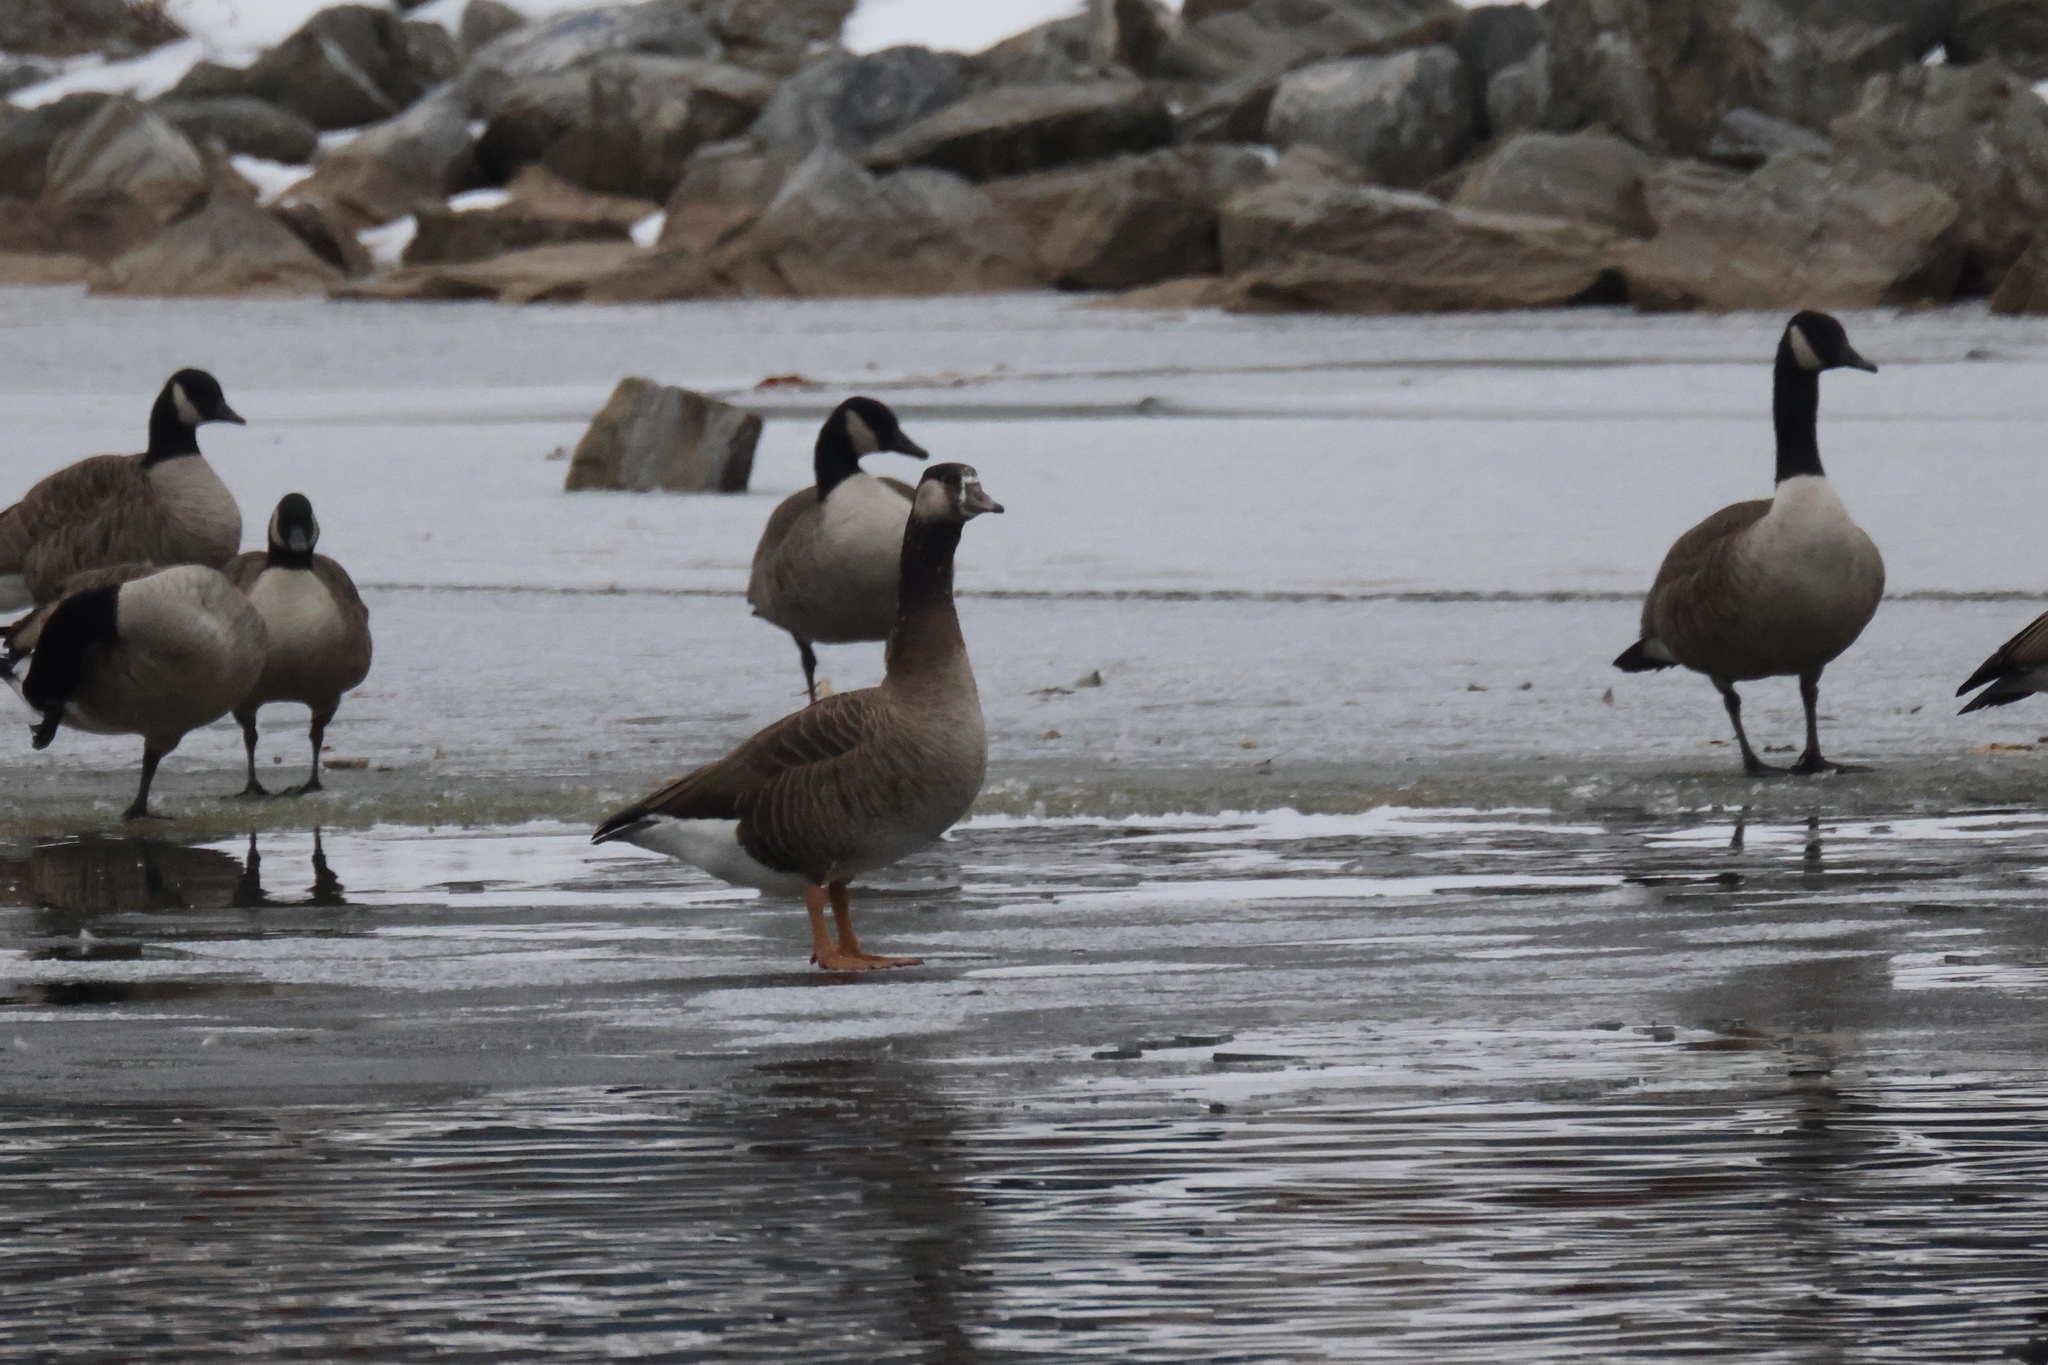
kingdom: Animalia
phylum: Chordata
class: Aves
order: Anseriformes
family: Anatidae
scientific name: Anatidae
